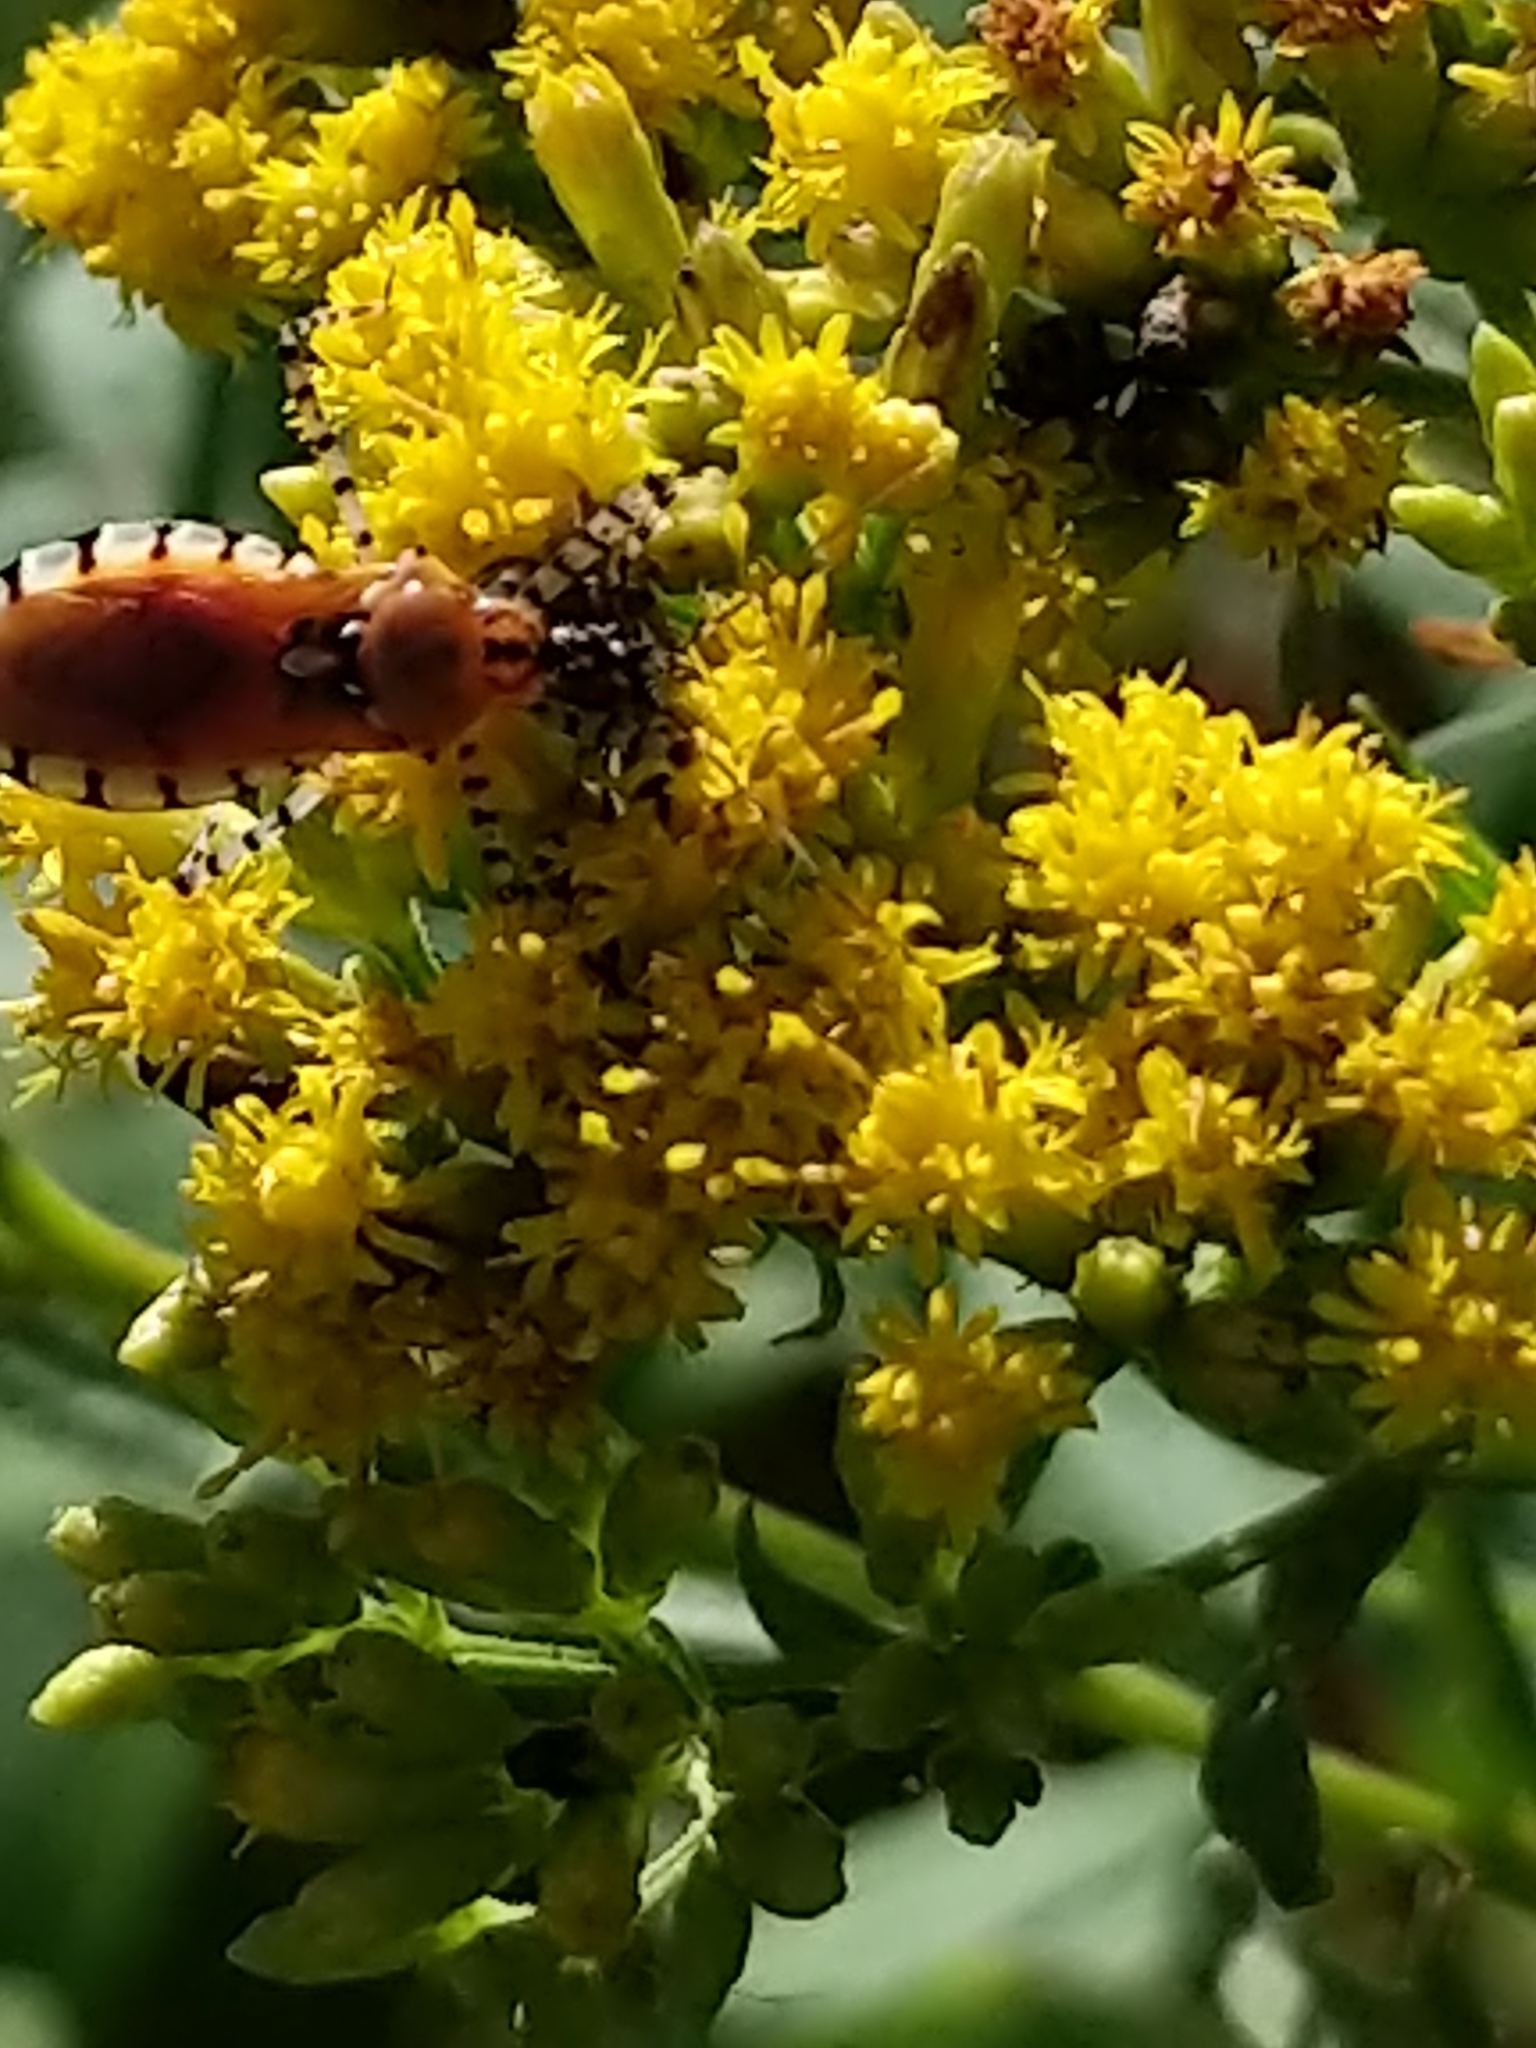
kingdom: Animalia
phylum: Arthropoda
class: Insecta
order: Hemiptera
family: Reduviidae
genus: Pselliopus
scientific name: Pselliopus cinctus
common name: Ringed assassin bug
